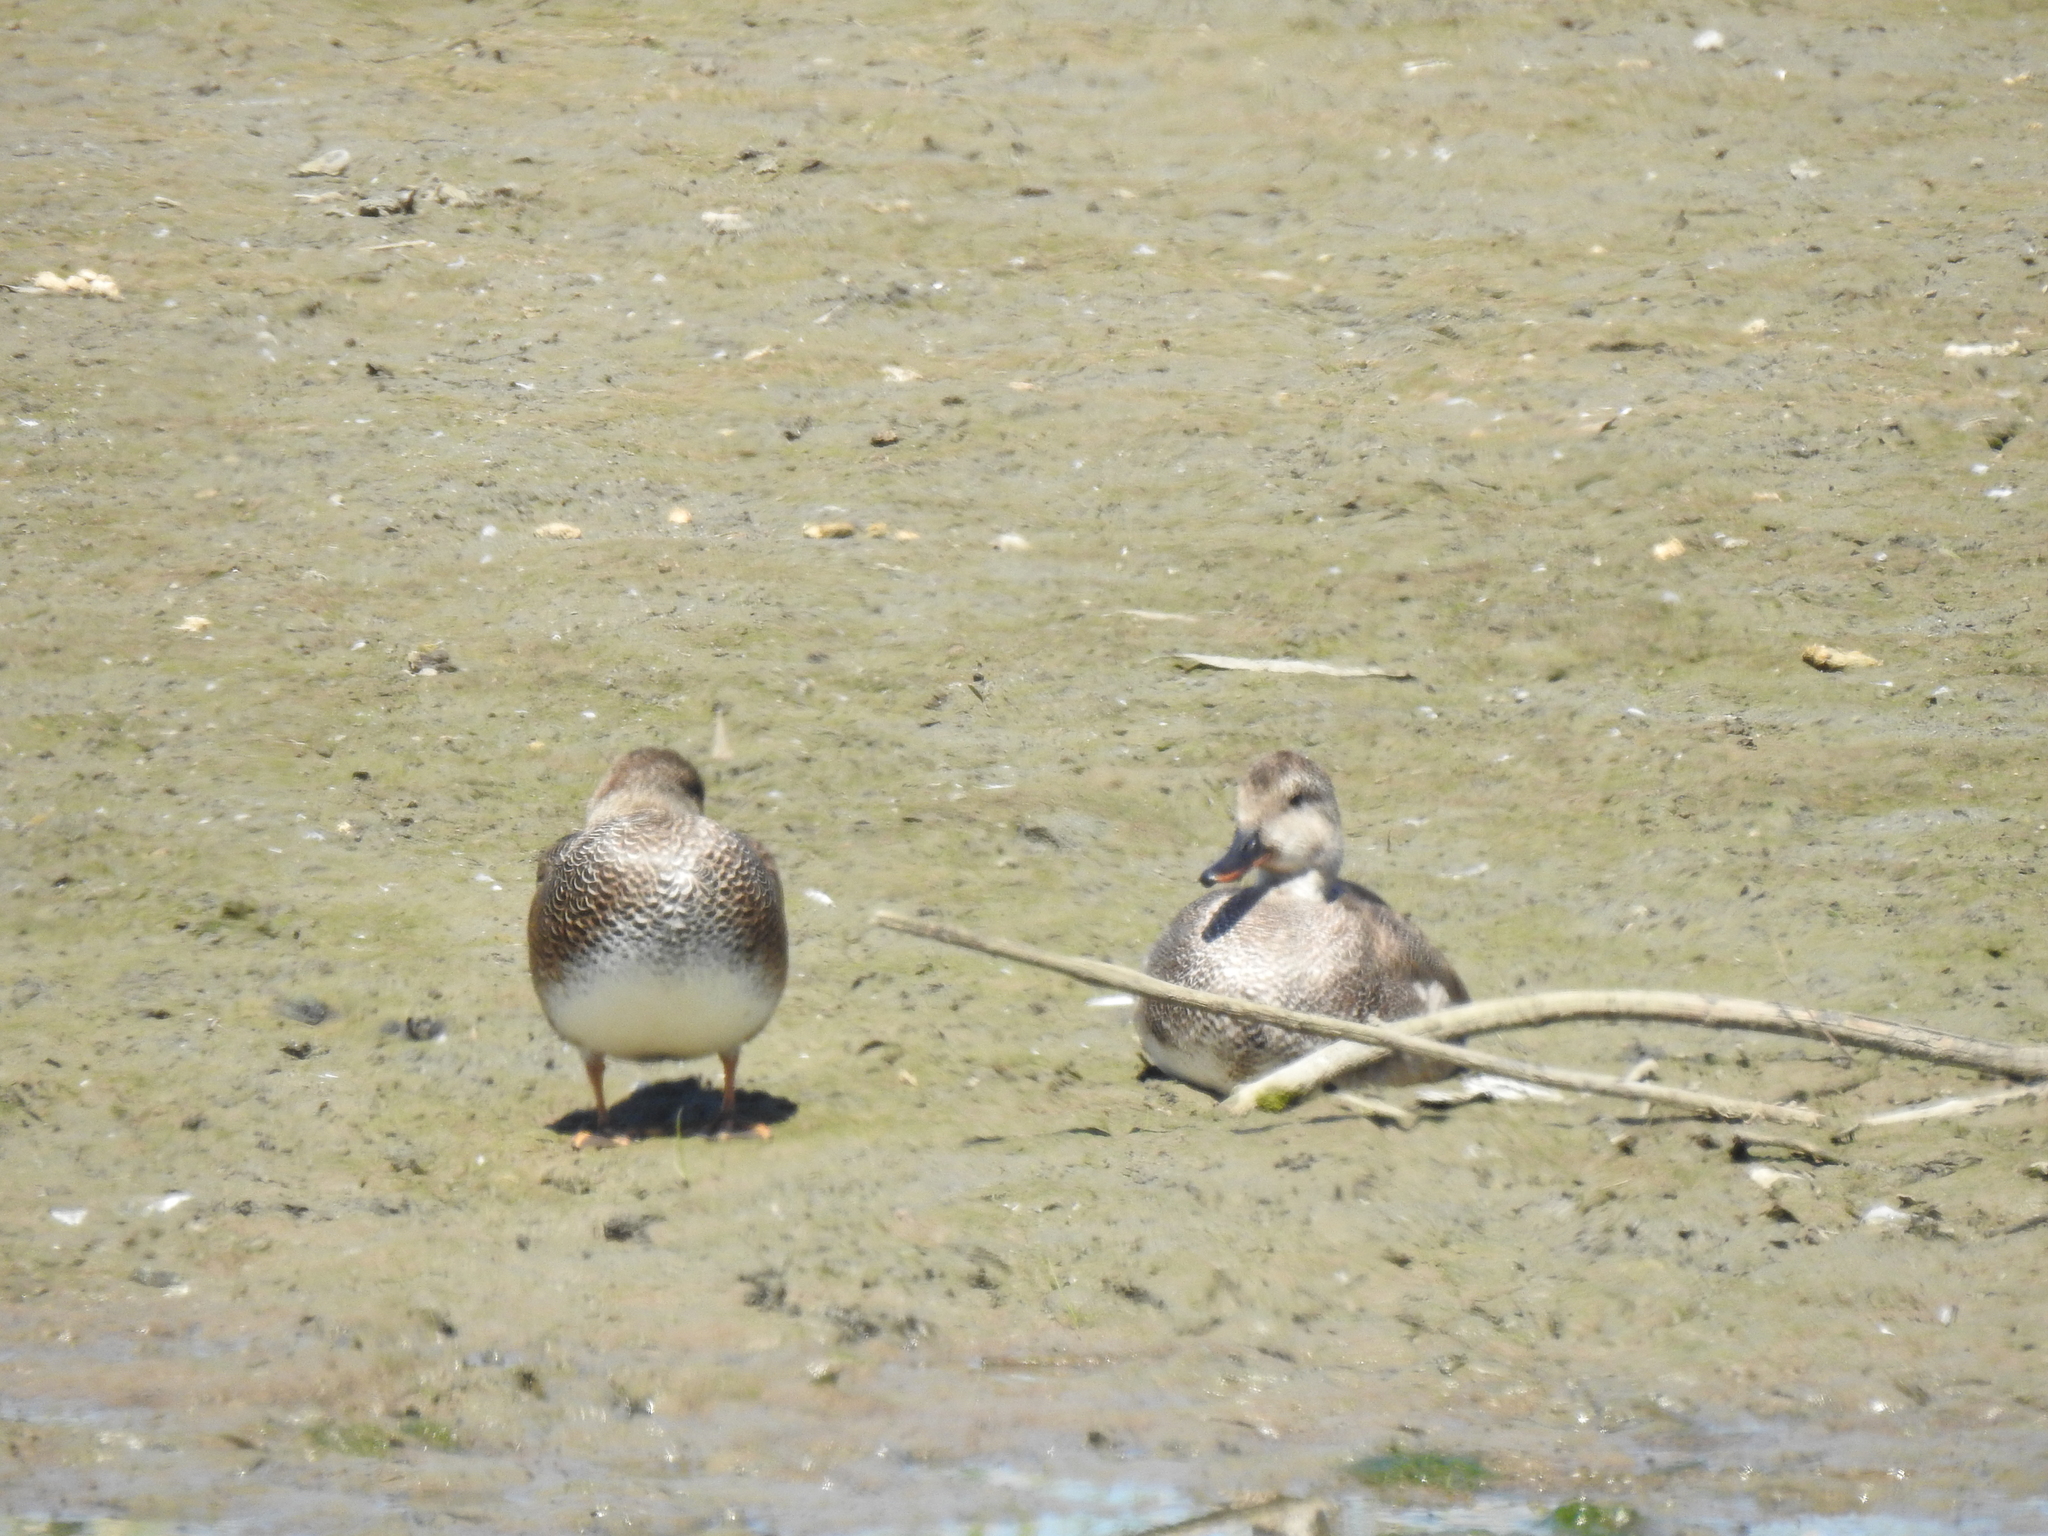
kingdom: Animalia
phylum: Chordata
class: Aves
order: Anseriformes
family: Anatidae
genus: Mareca
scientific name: Mareca strepera
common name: Gadwall
